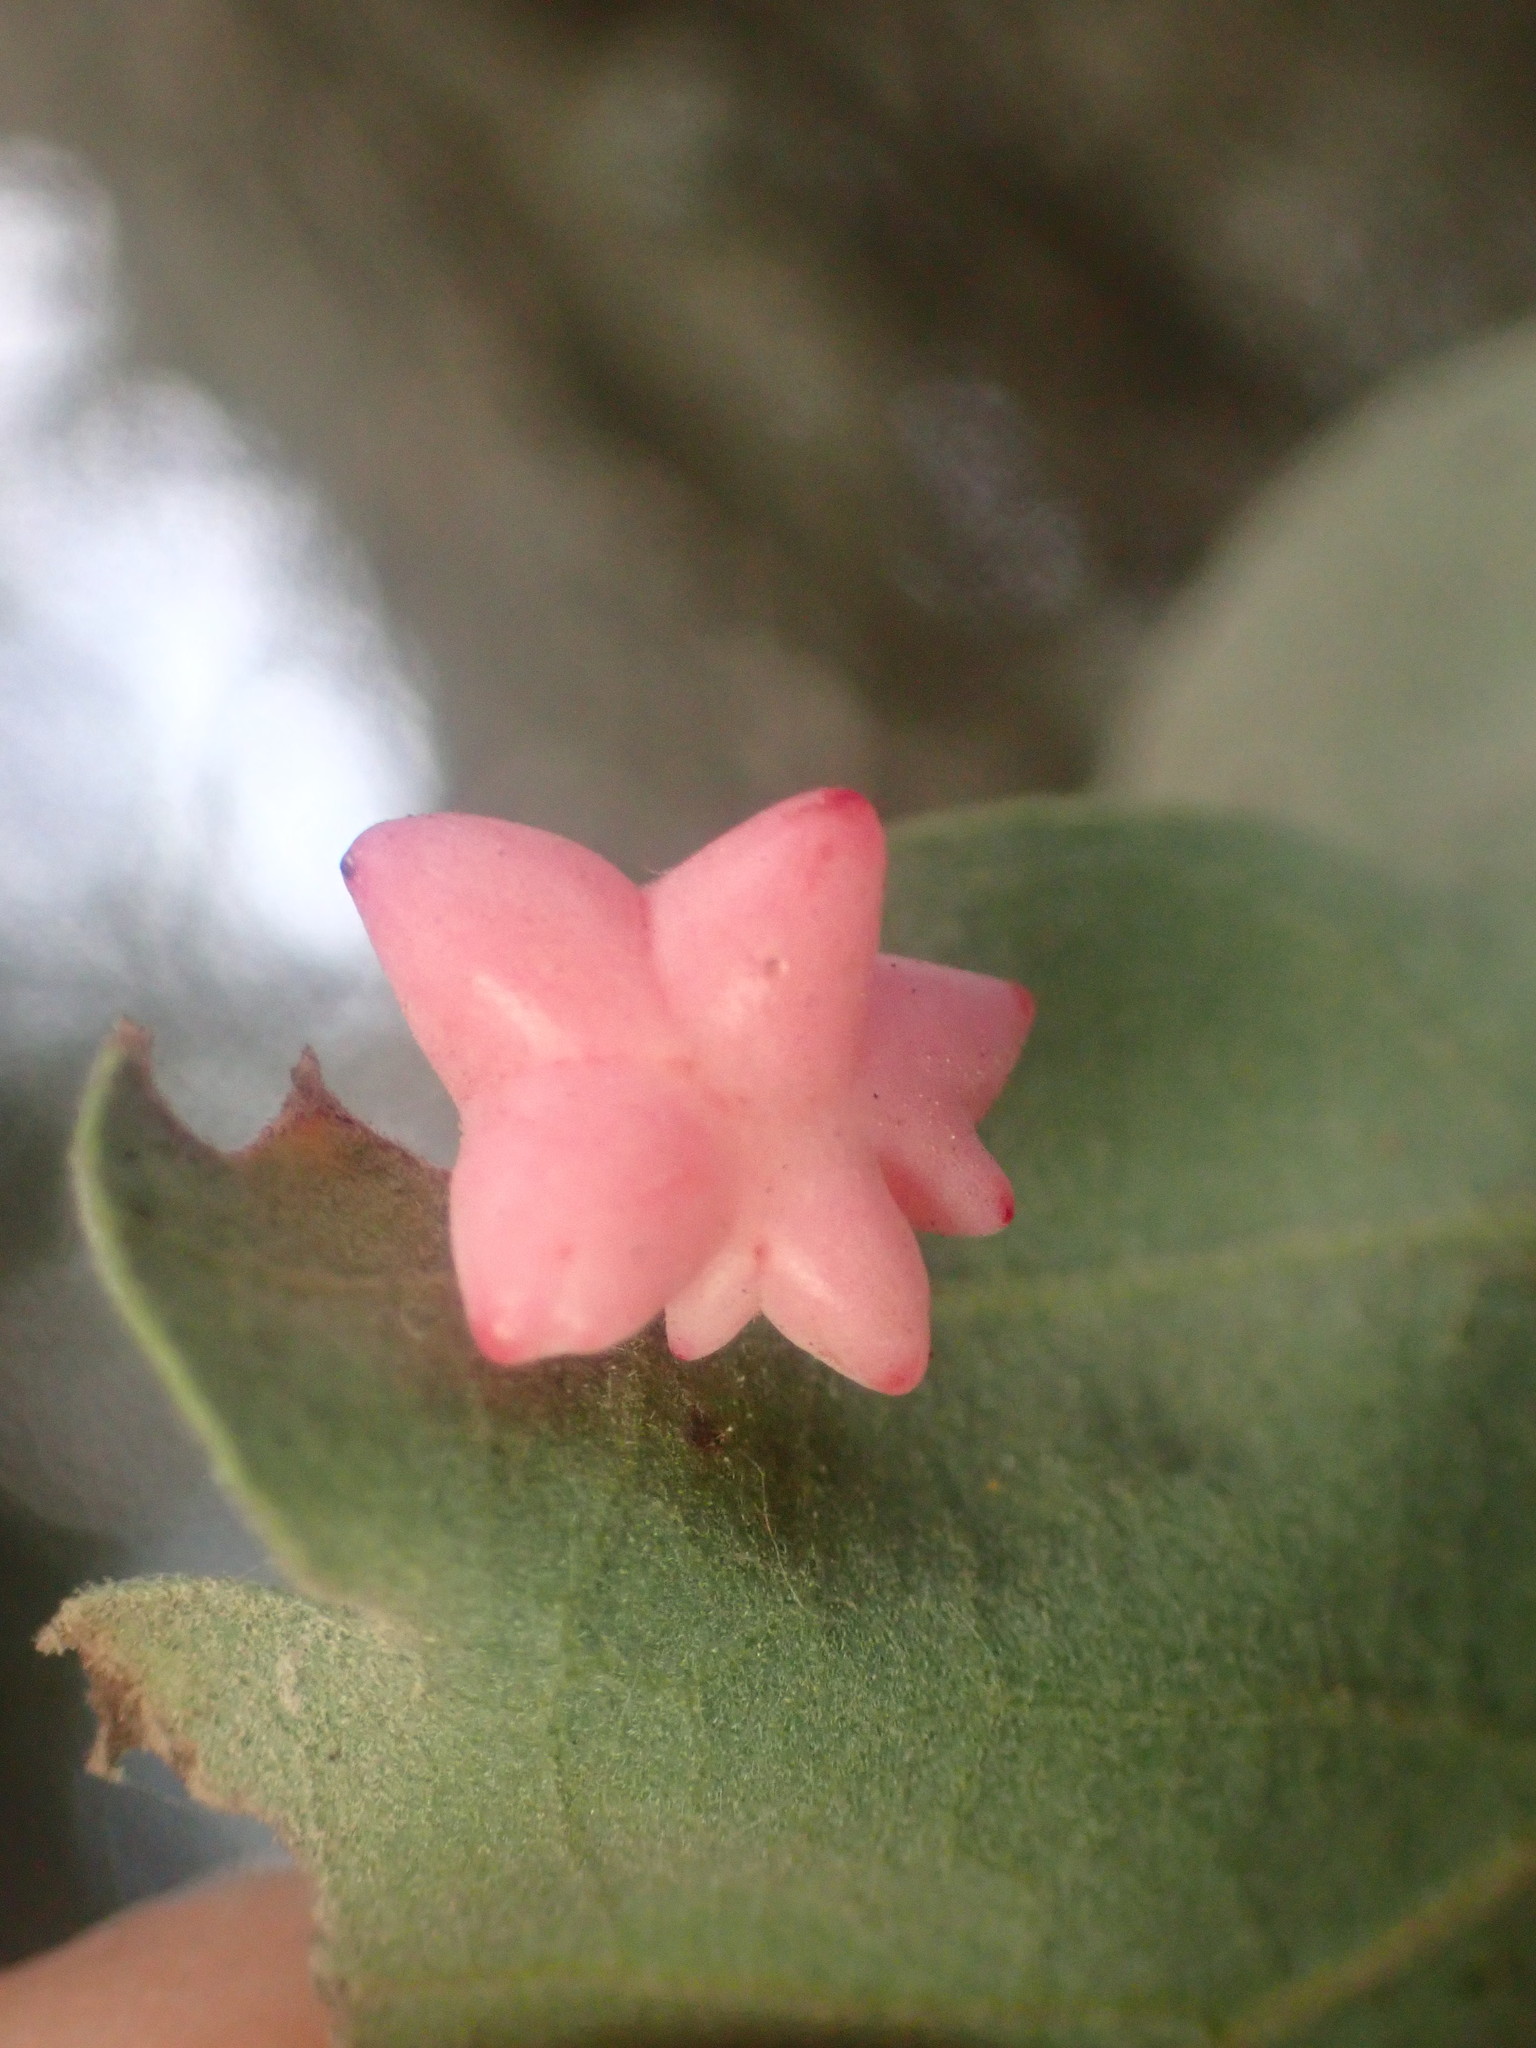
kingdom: Animalia
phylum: Arthropoda
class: Insecta
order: Hymenoptera
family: Cynipidae
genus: Cynips
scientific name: Cynips douglasi
